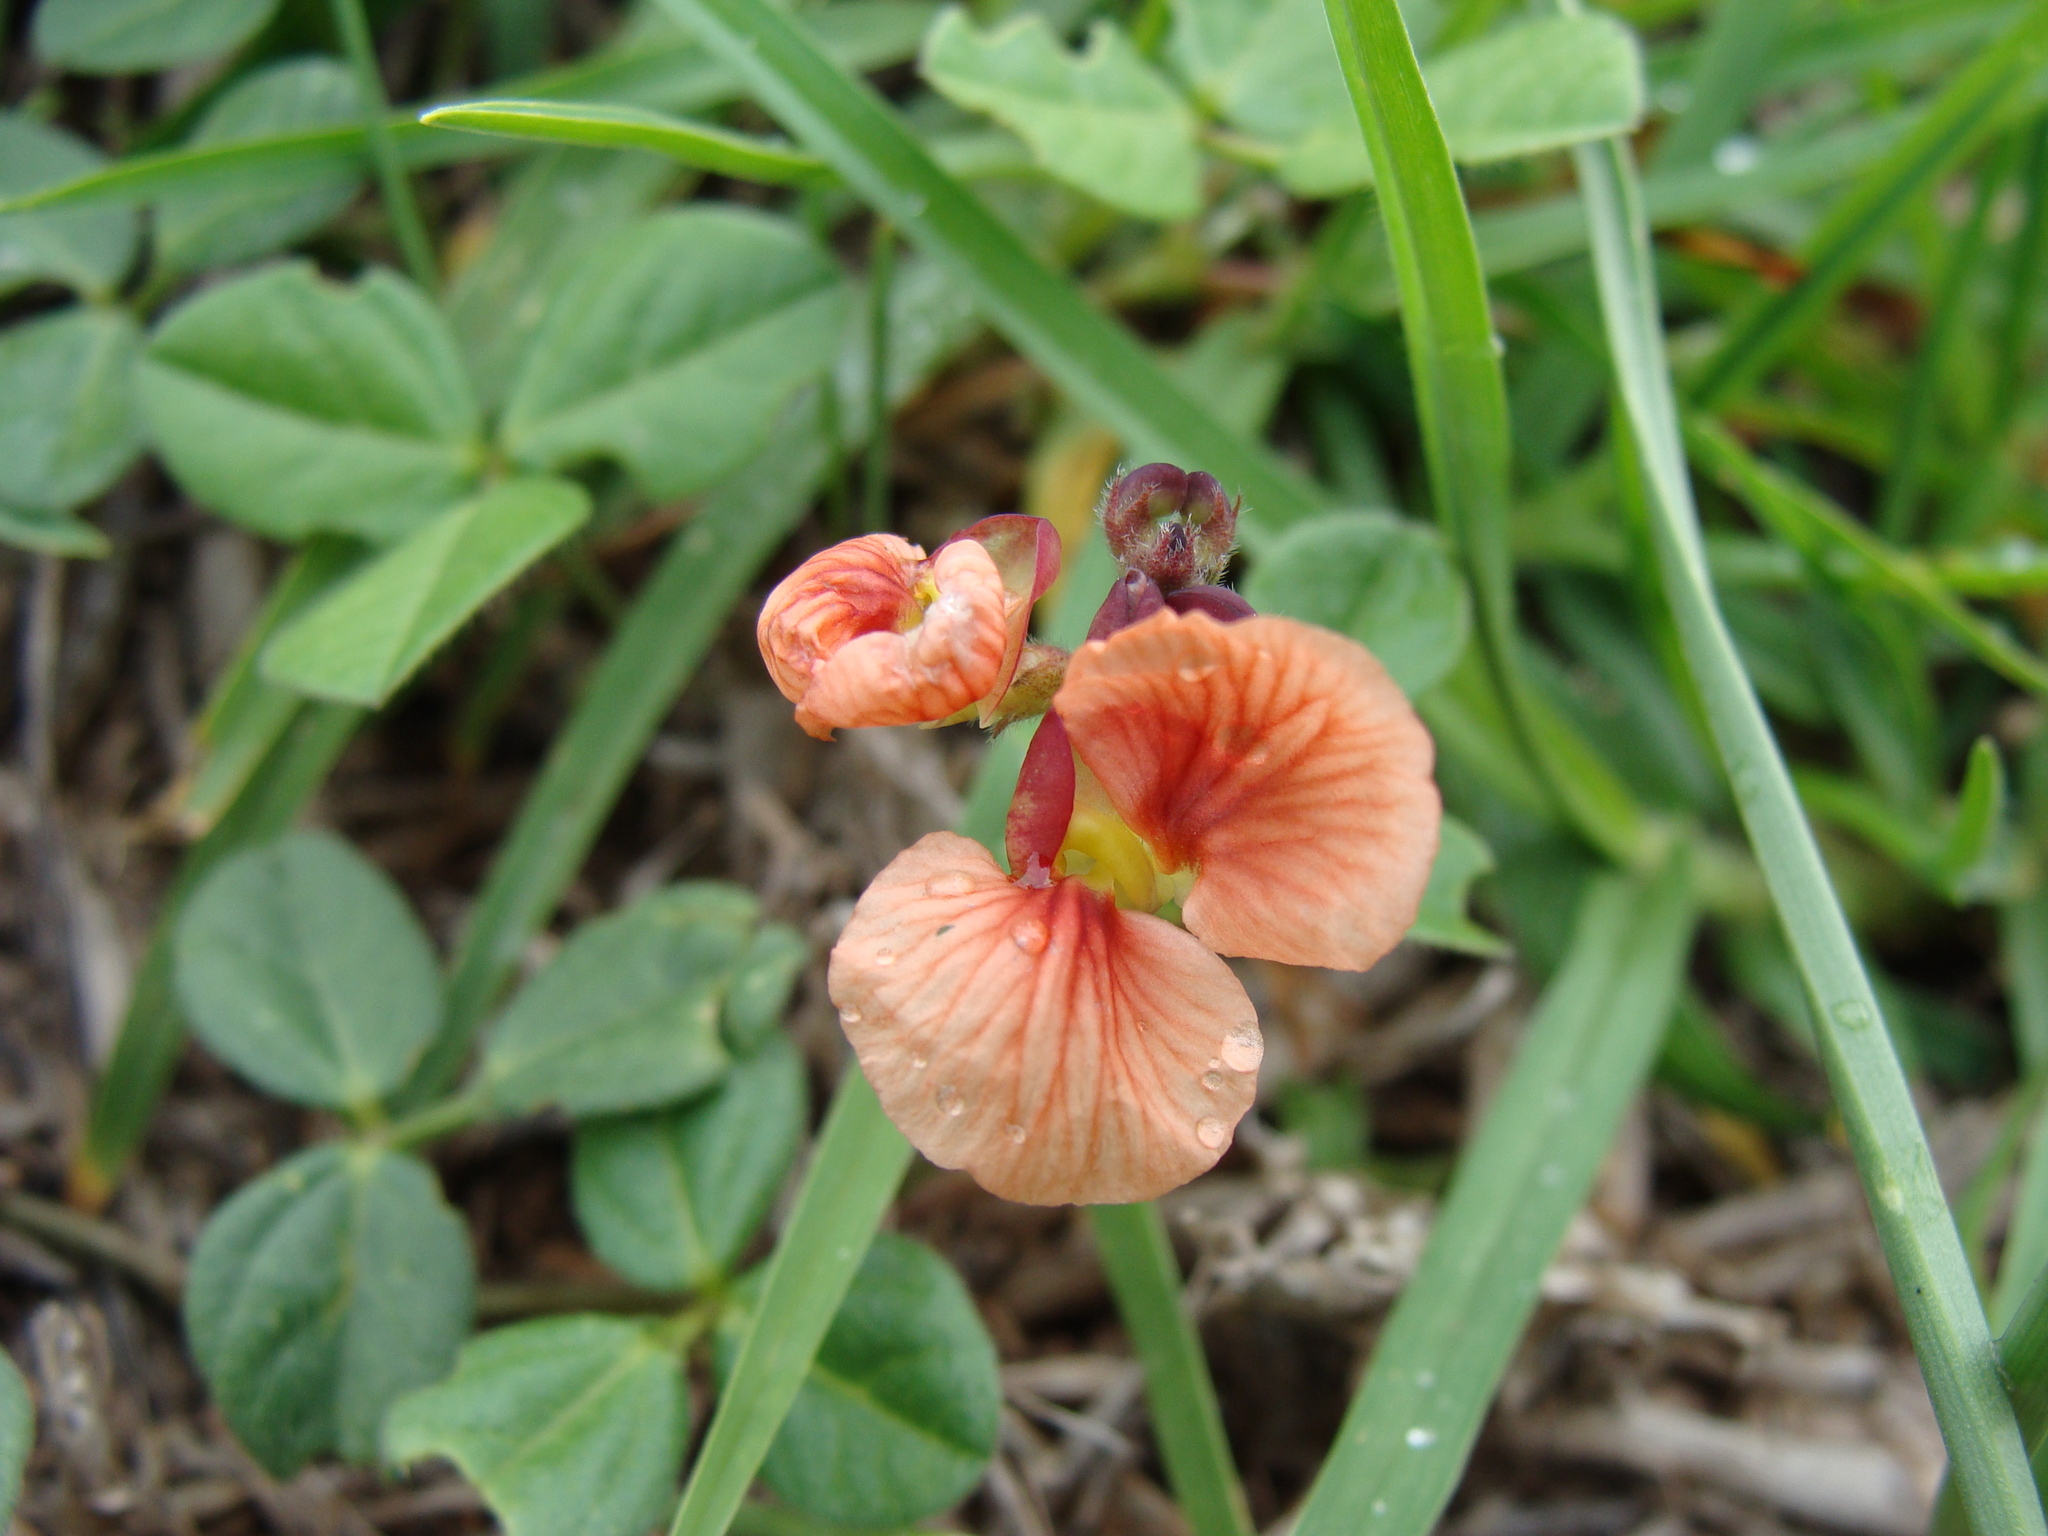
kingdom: Plantae
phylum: Tracheophyta
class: Magnoliopsida
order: Fabales
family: Fabaceae
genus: Macroptilium
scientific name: Macroptilium gibbosifolium
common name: Variableleaf bushbean
